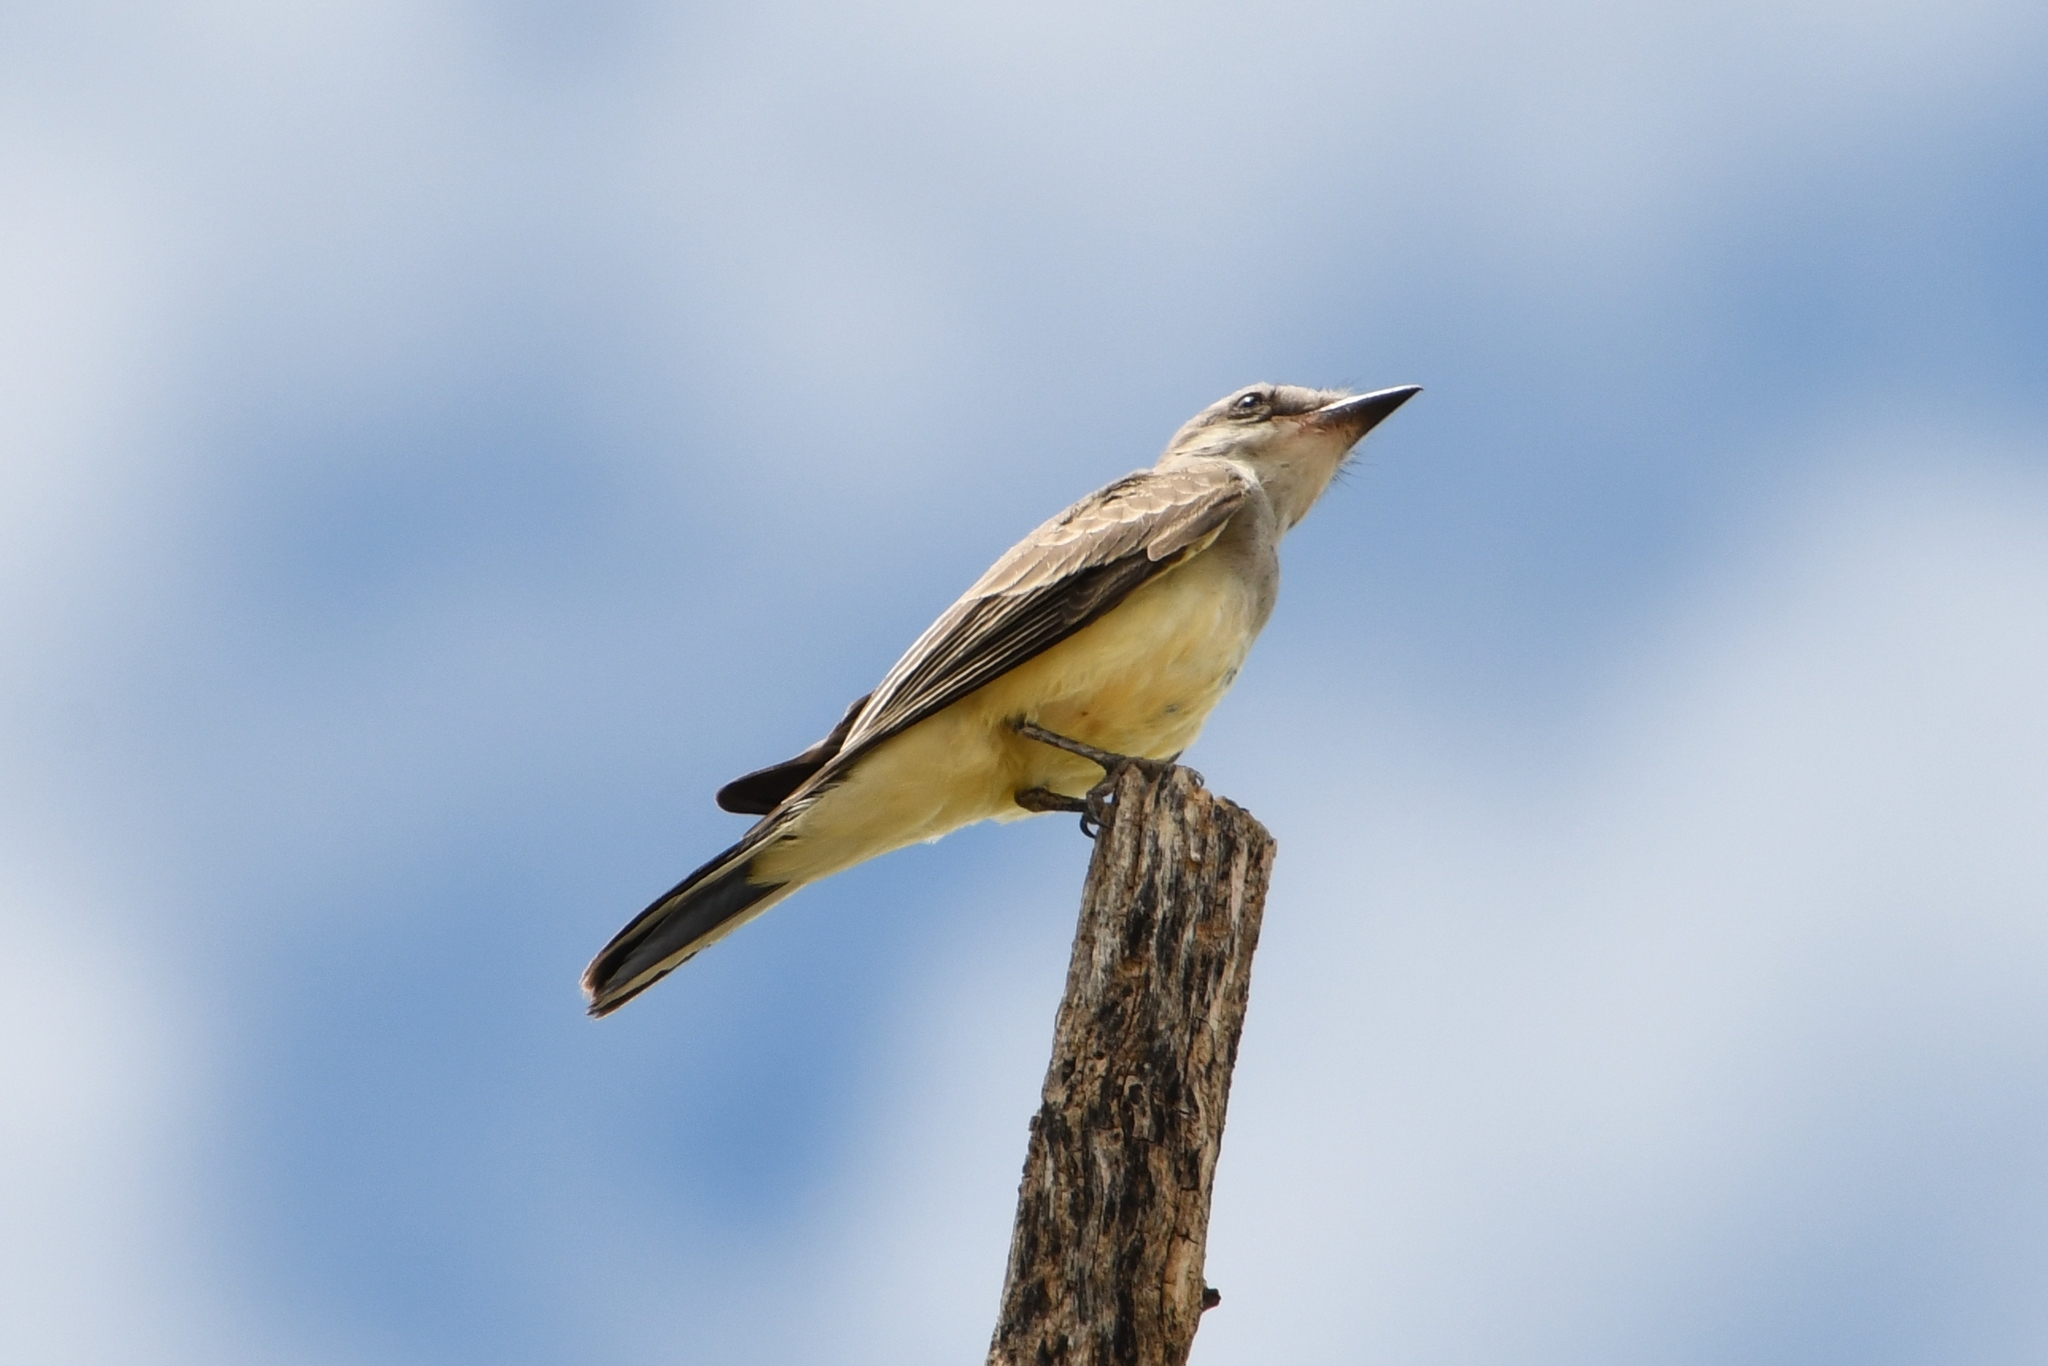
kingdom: Animalia
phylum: Chordata
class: Aves
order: Passeriformes
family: Tyrannidae
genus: Tyrannus
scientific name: Tyrannus verticalis
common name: Western kingbird
